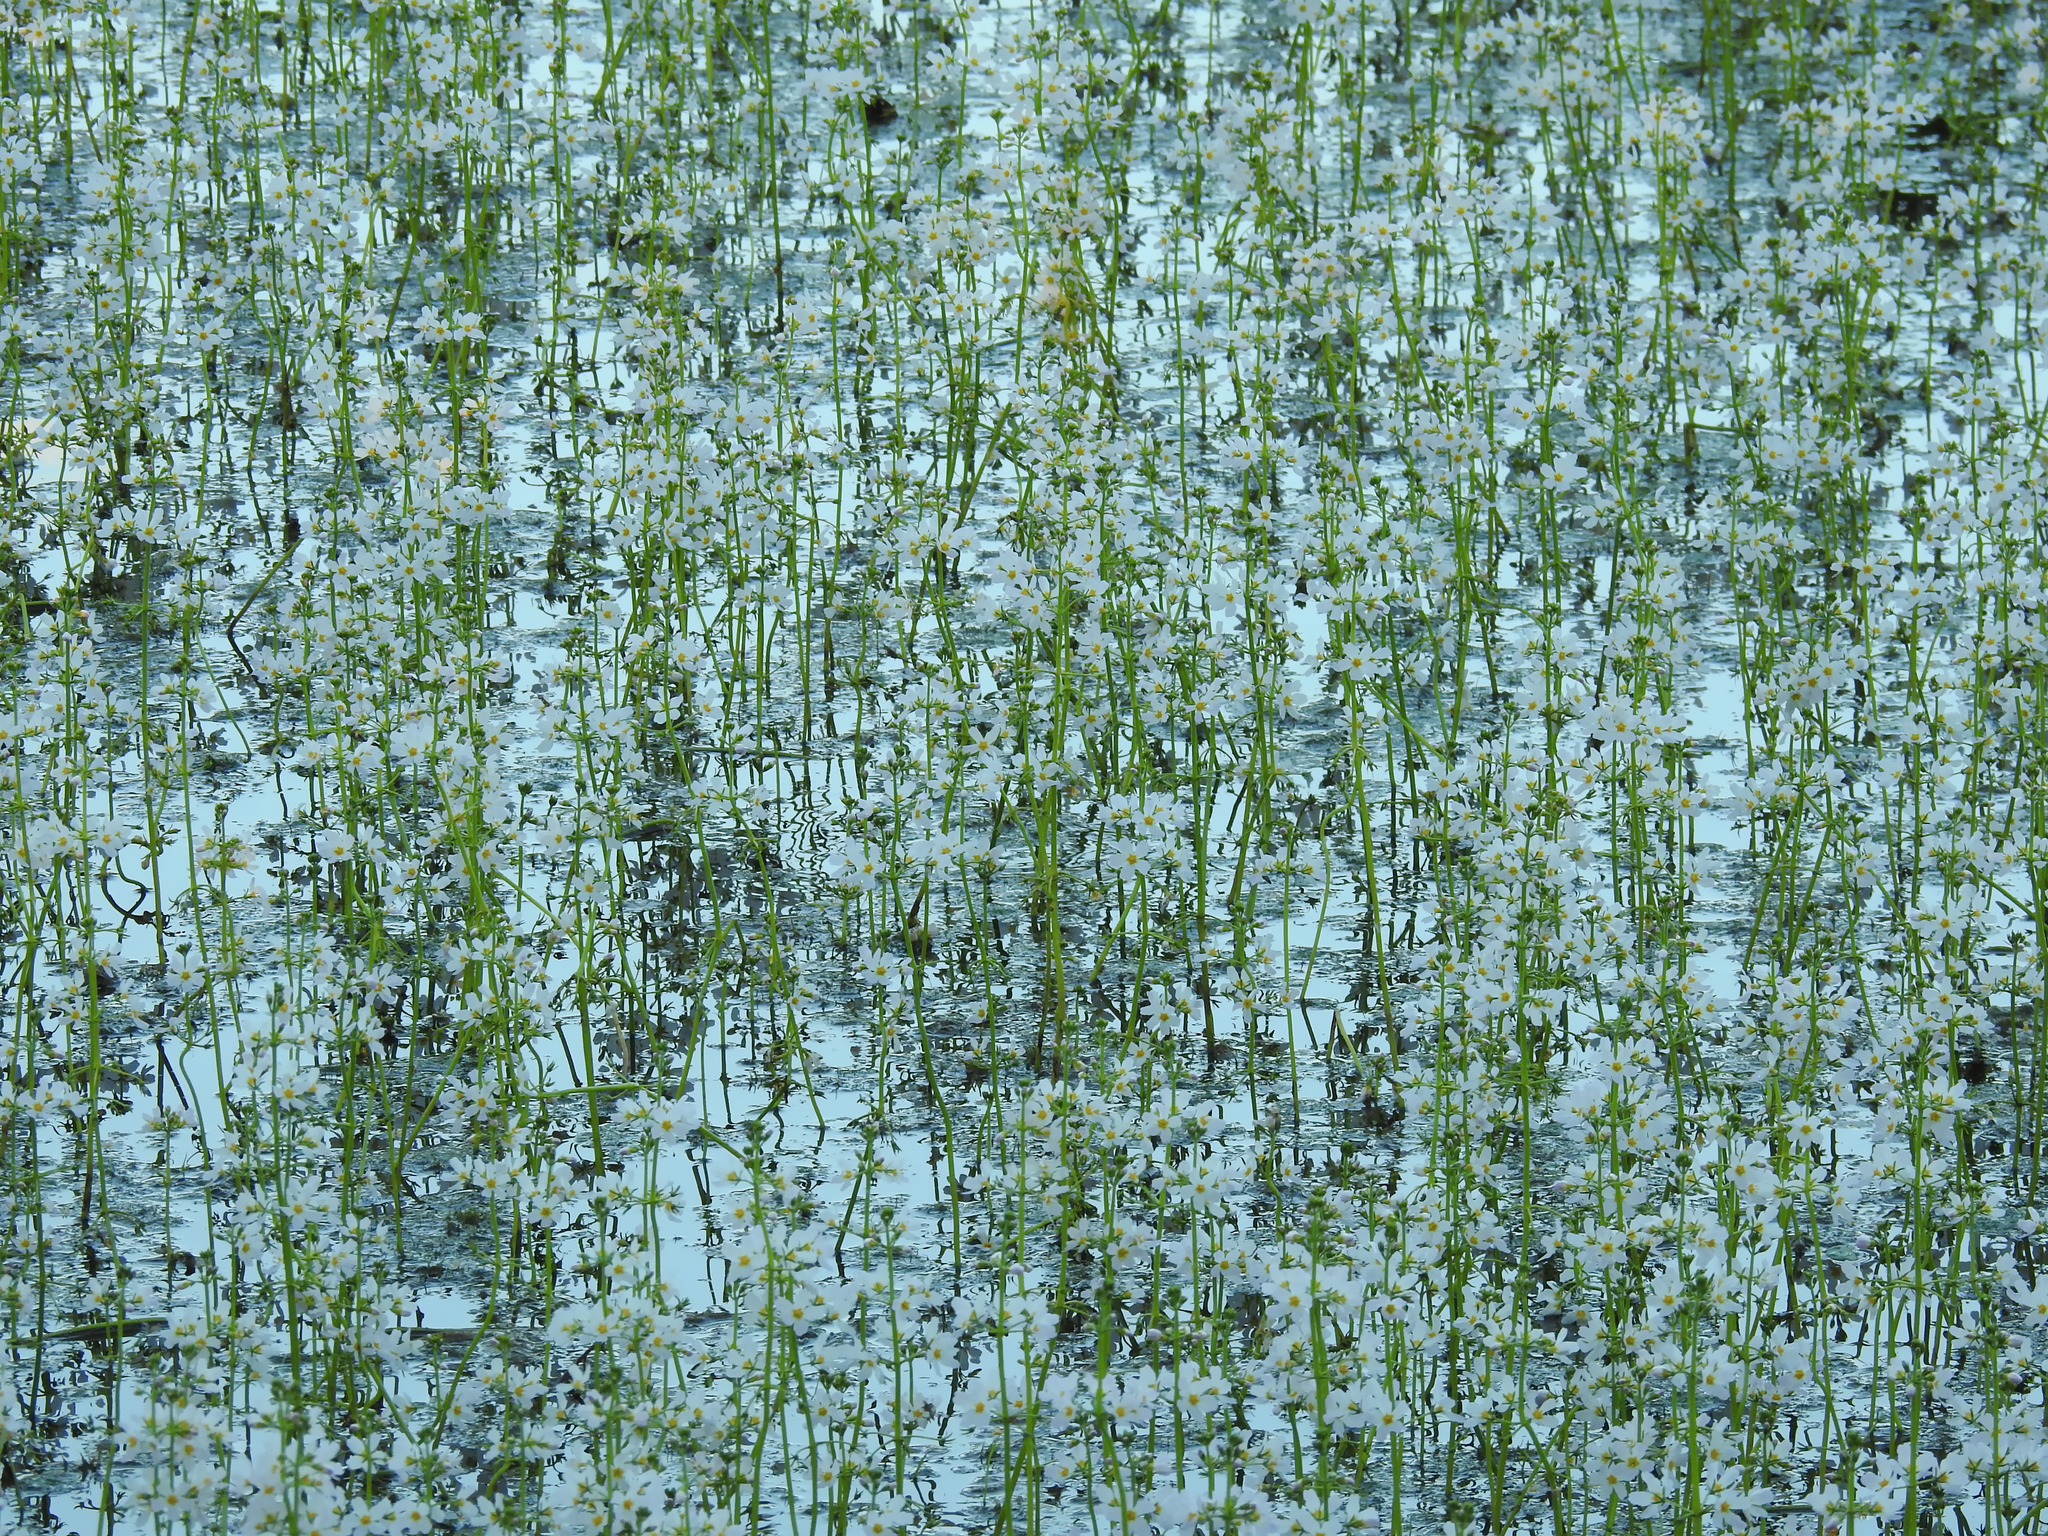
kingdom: Plantae
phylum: Tracheophyta
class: Magnoliopsida
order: Ericales
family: Primulaceae
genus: Hottonia
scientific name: Hottonia palustris
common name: Water-violet
